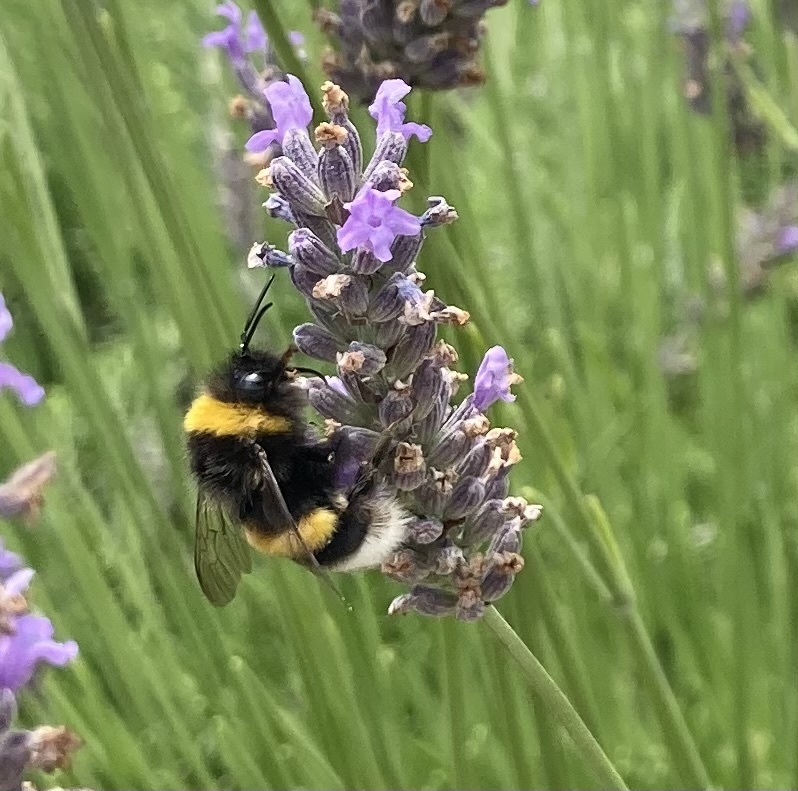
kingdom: Animalia
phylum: Arthropoda
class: Insecta
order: Hymenoptera
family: Apidae
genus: Bombus
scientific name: Bombus terrestris
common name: Buff-tailed bumblebee
